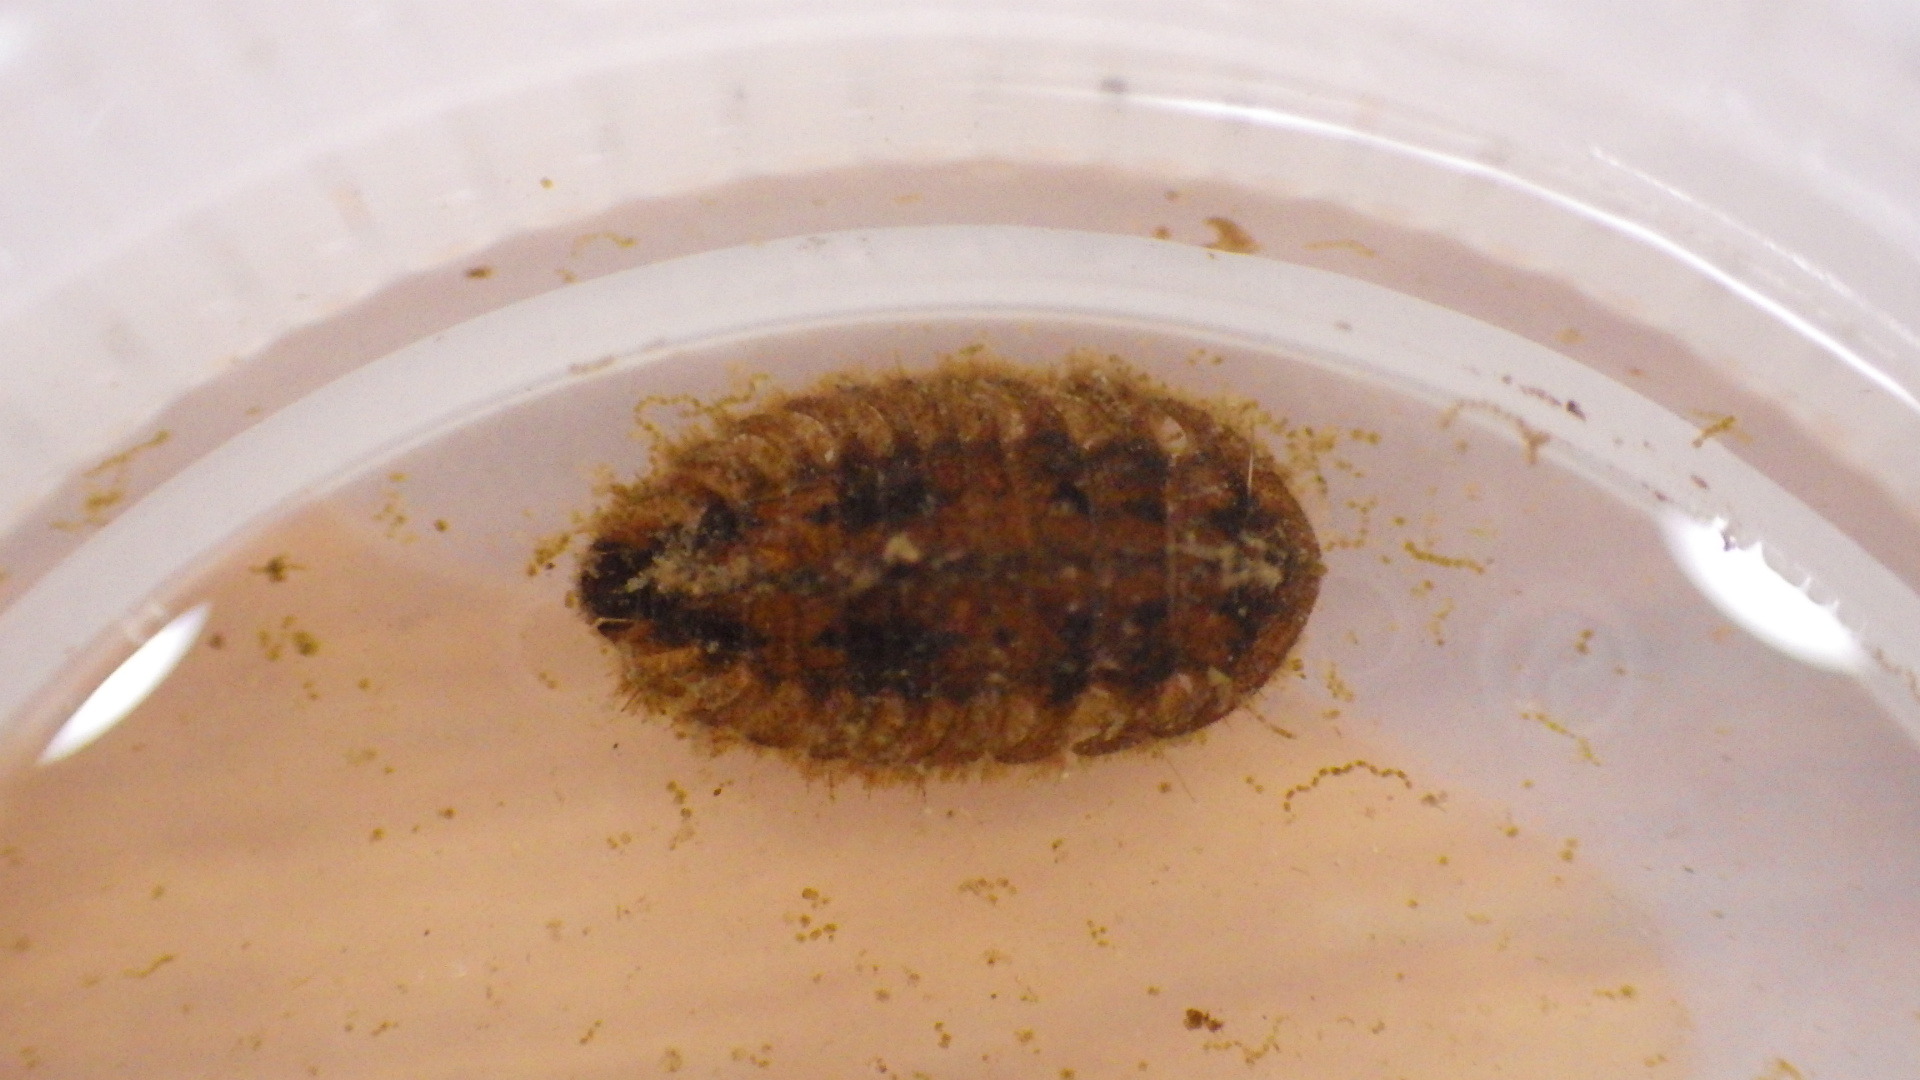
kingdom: Animalia
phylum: Arthropoda
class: Insecta
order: Coleoptera
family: Psephenidae
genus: Ectopria
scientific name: Ectopria nervosa
